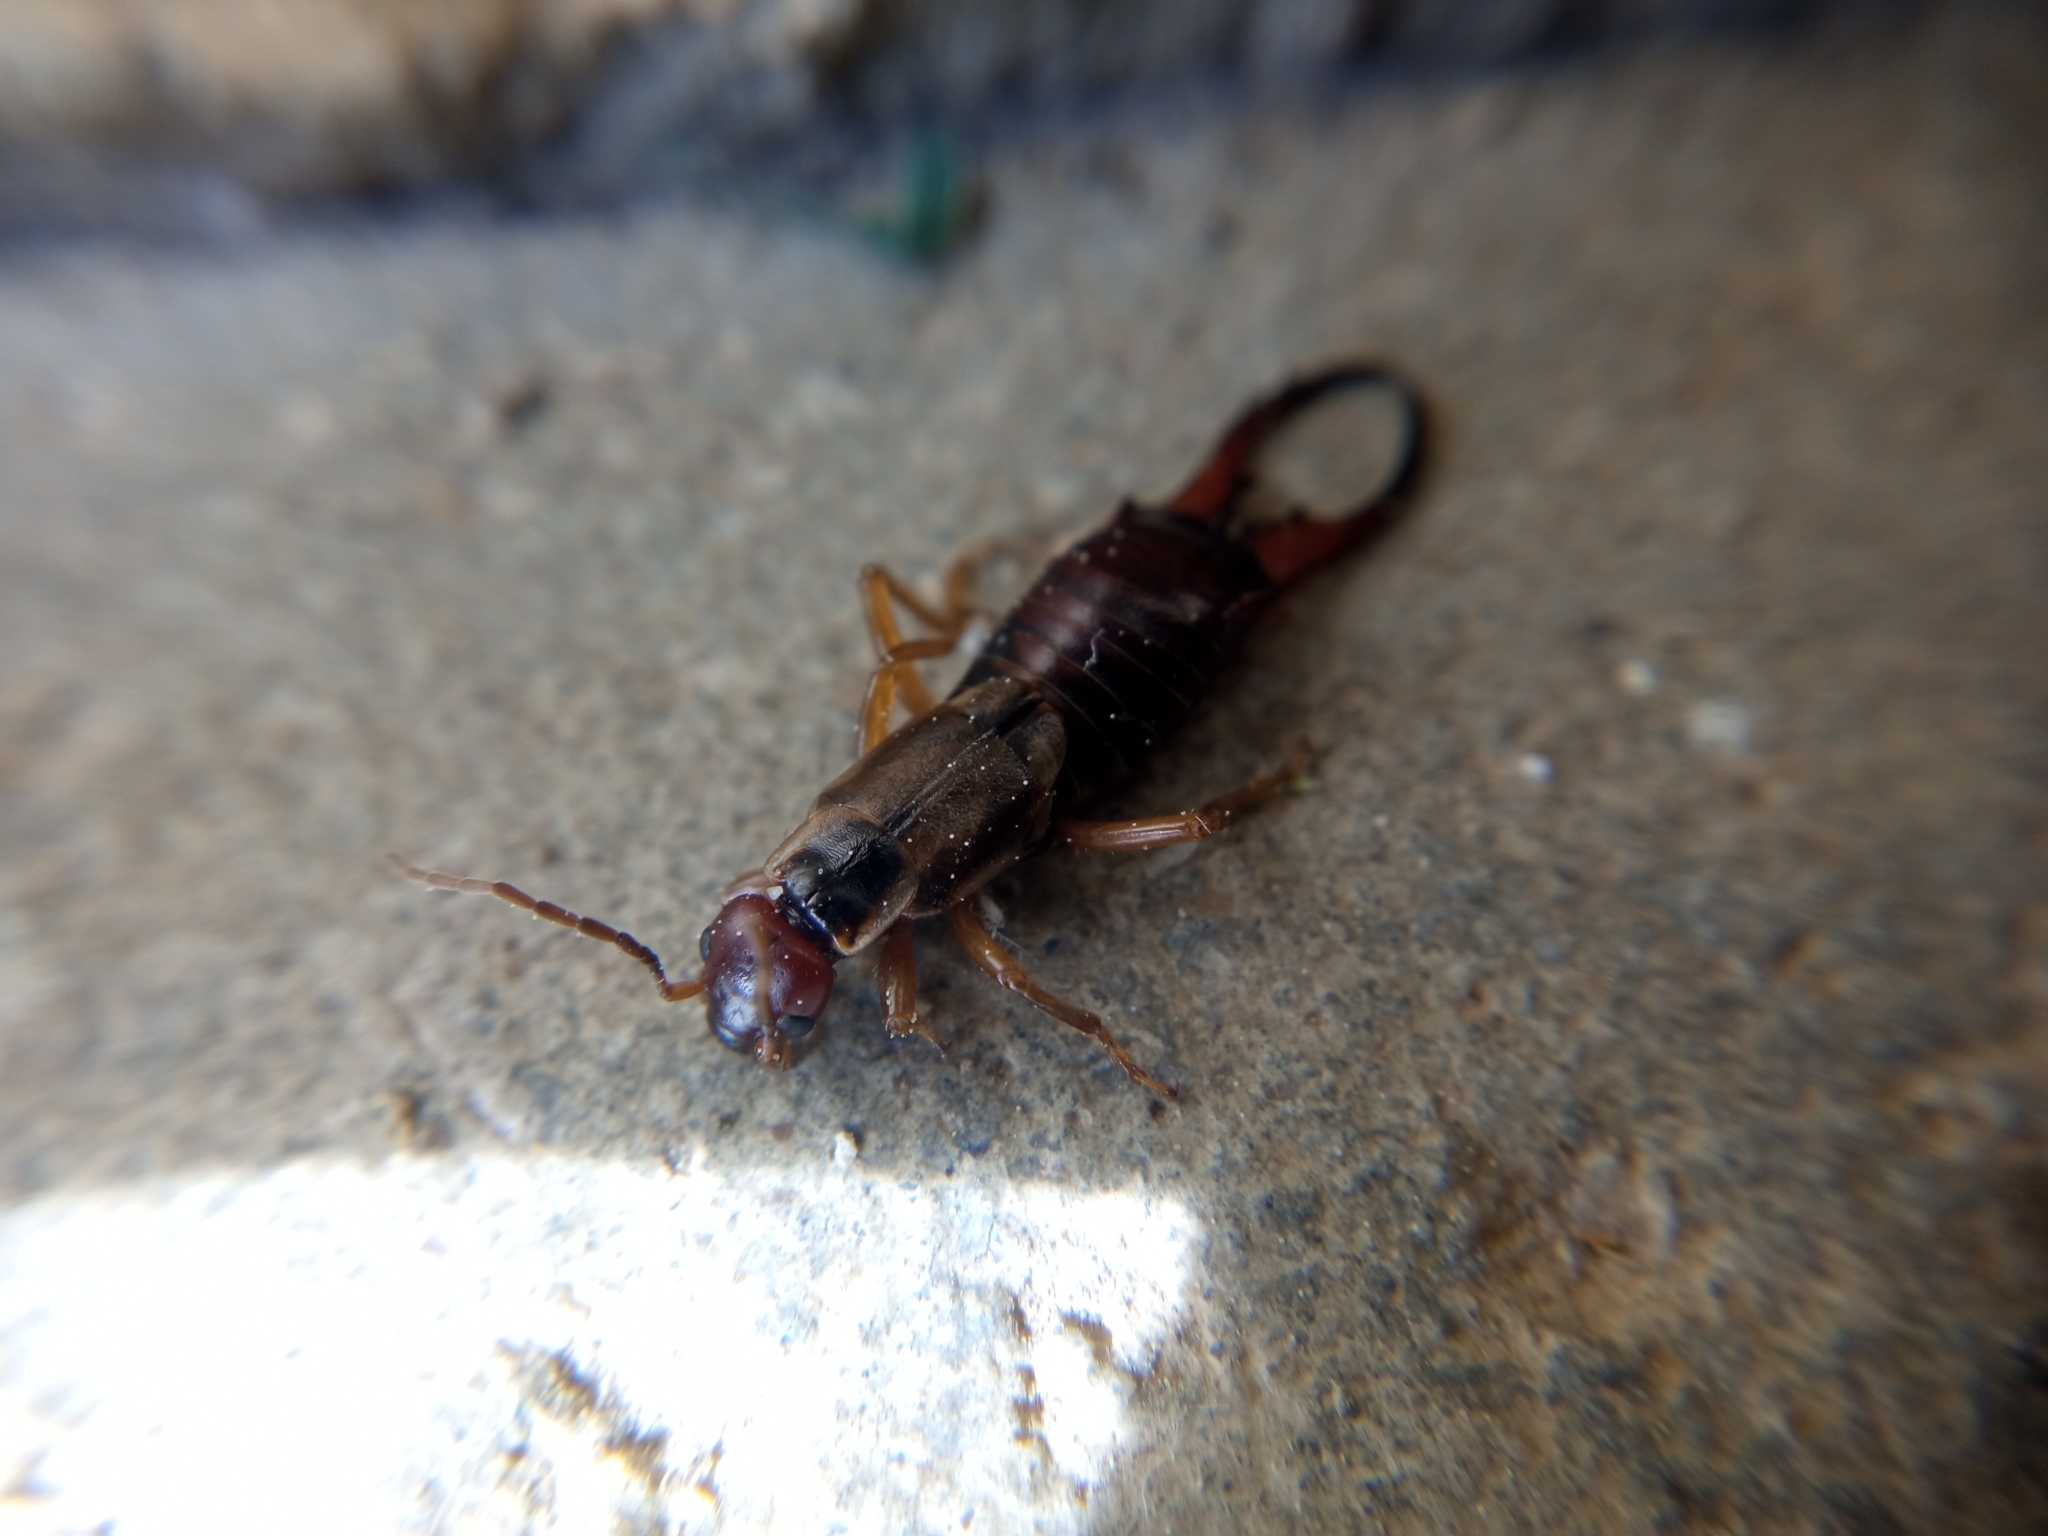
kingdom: Animalia
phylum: Arthropoda
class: Insecta
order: Dermaptera
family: Forficulidae
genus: Forficula
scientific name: Forficula
